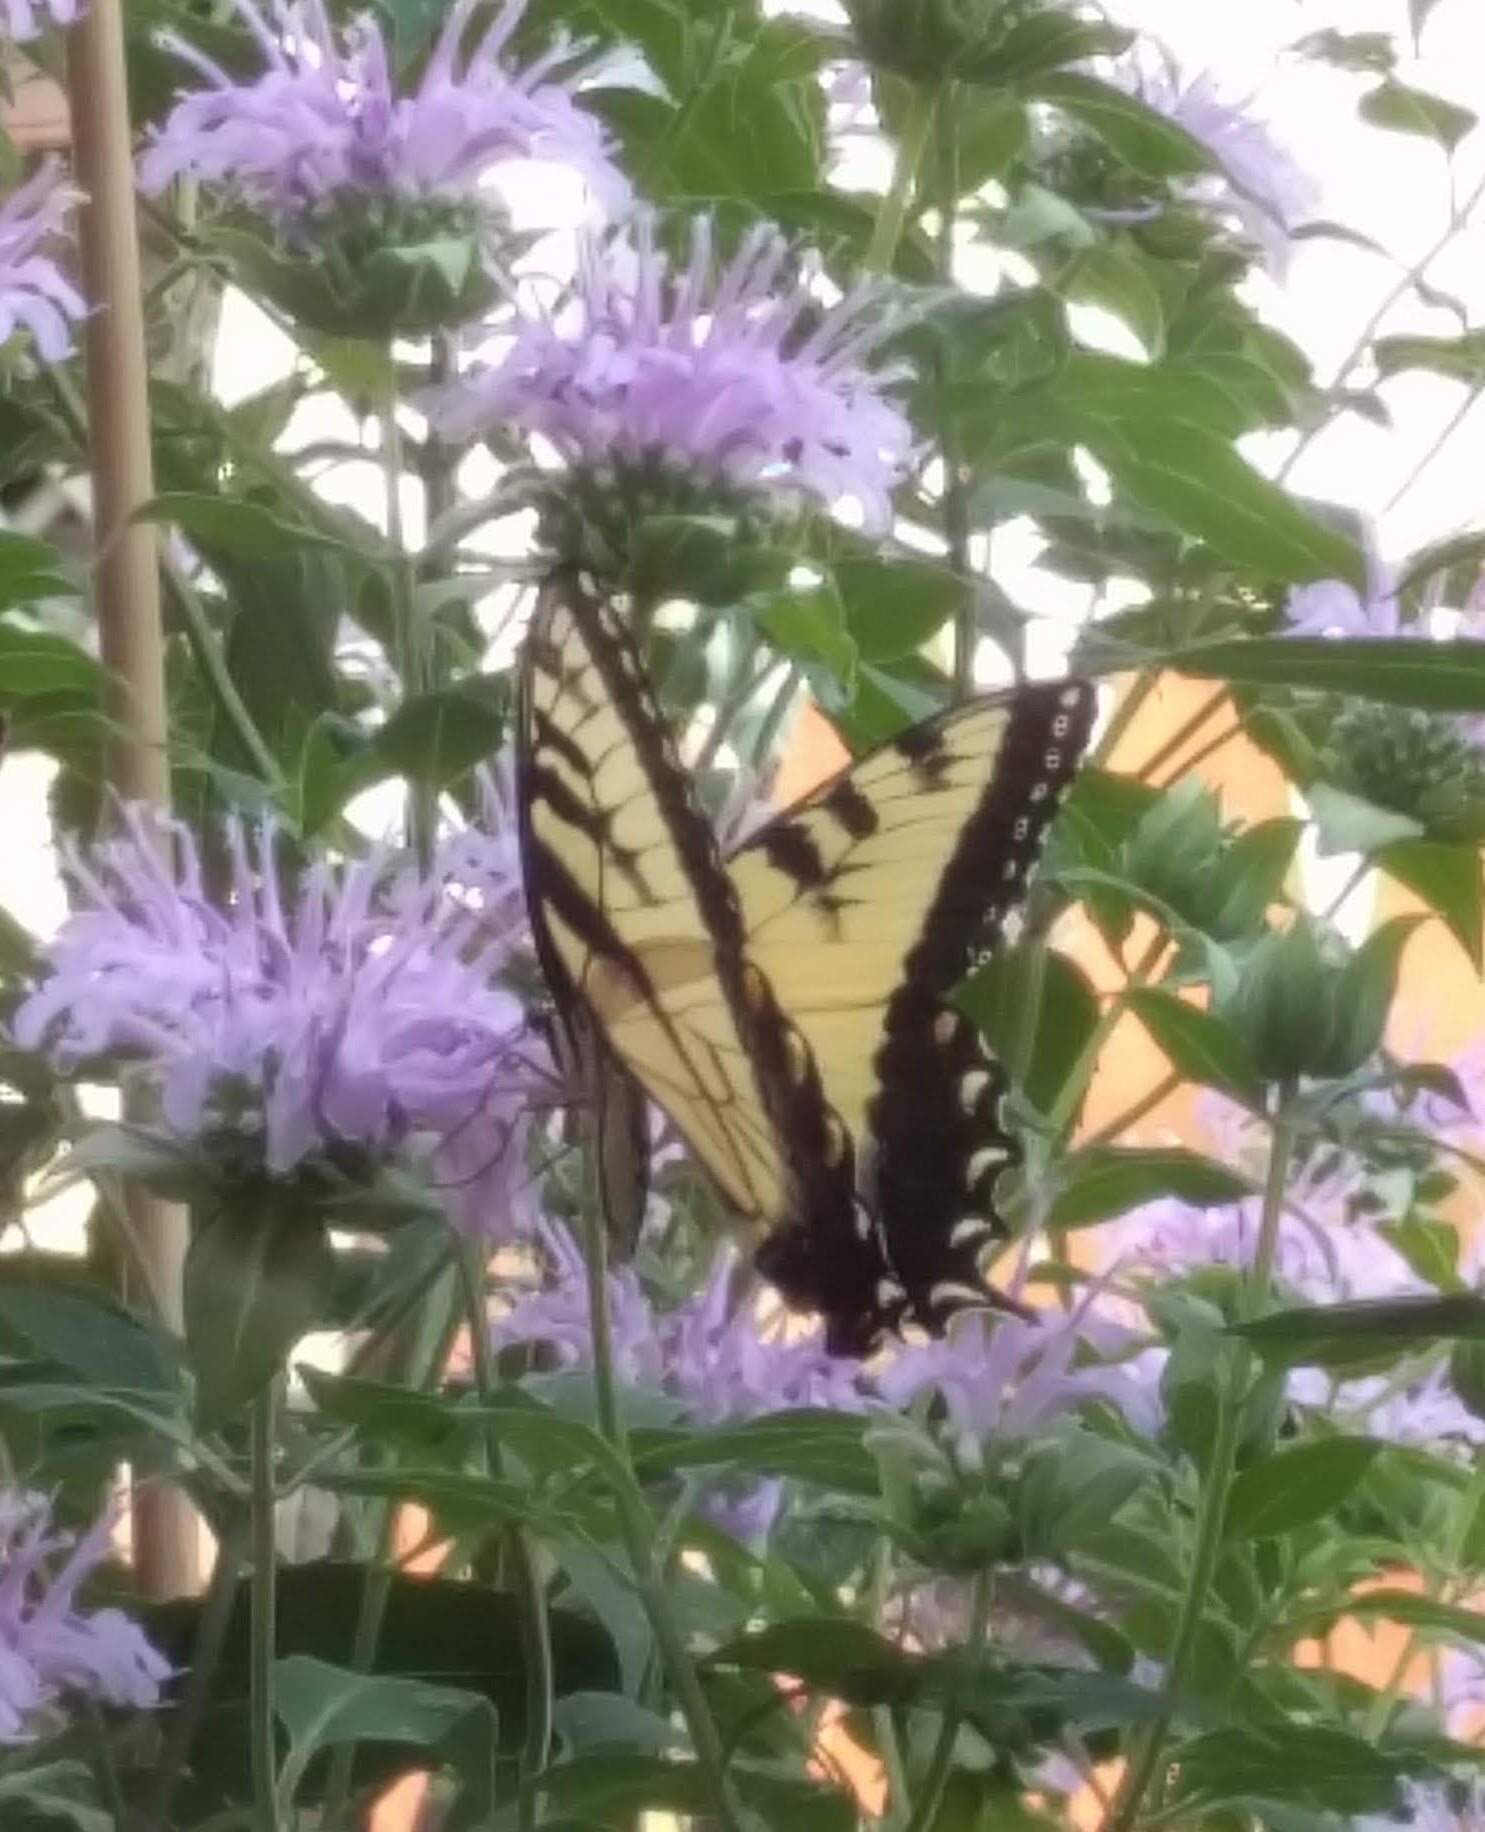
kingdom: Animalia
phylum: Arthropoda
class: Insecta
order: Lepidoptera
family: Papilionidae
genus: Papilio
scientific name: Papilio glaucus
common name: Tiger swallowtail
